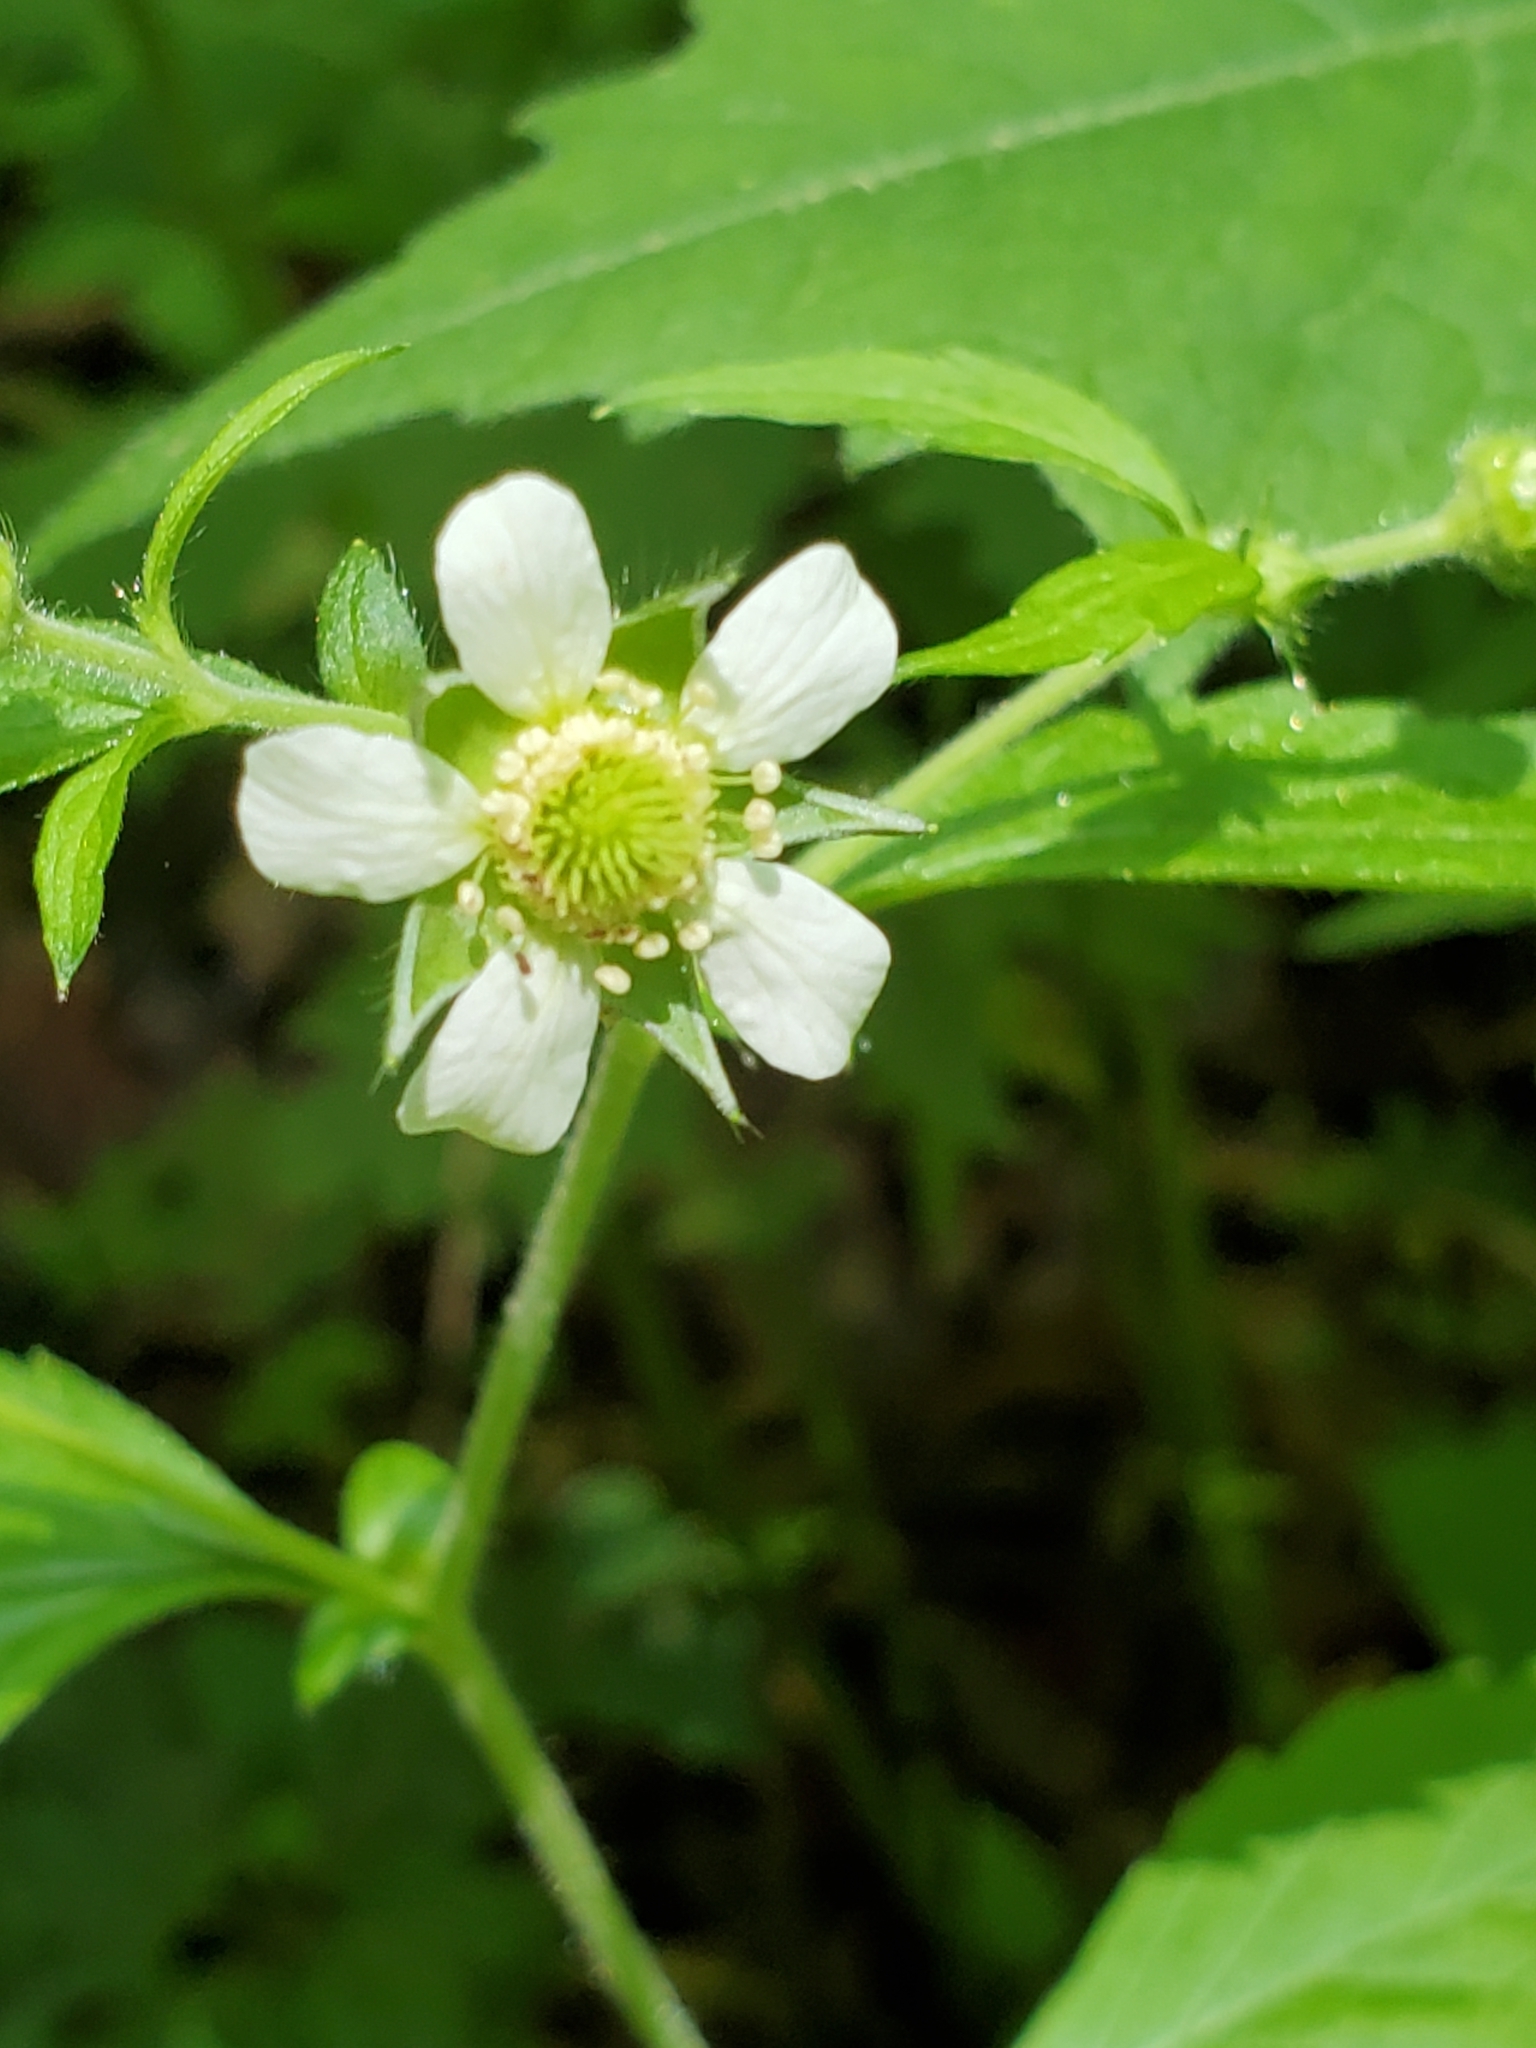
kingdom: Plantae
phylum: Tracheophyta
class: Magnoliopsida
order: Rosales
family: Rosaceae
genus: Geum
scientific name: Geum canadense
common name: White avens
